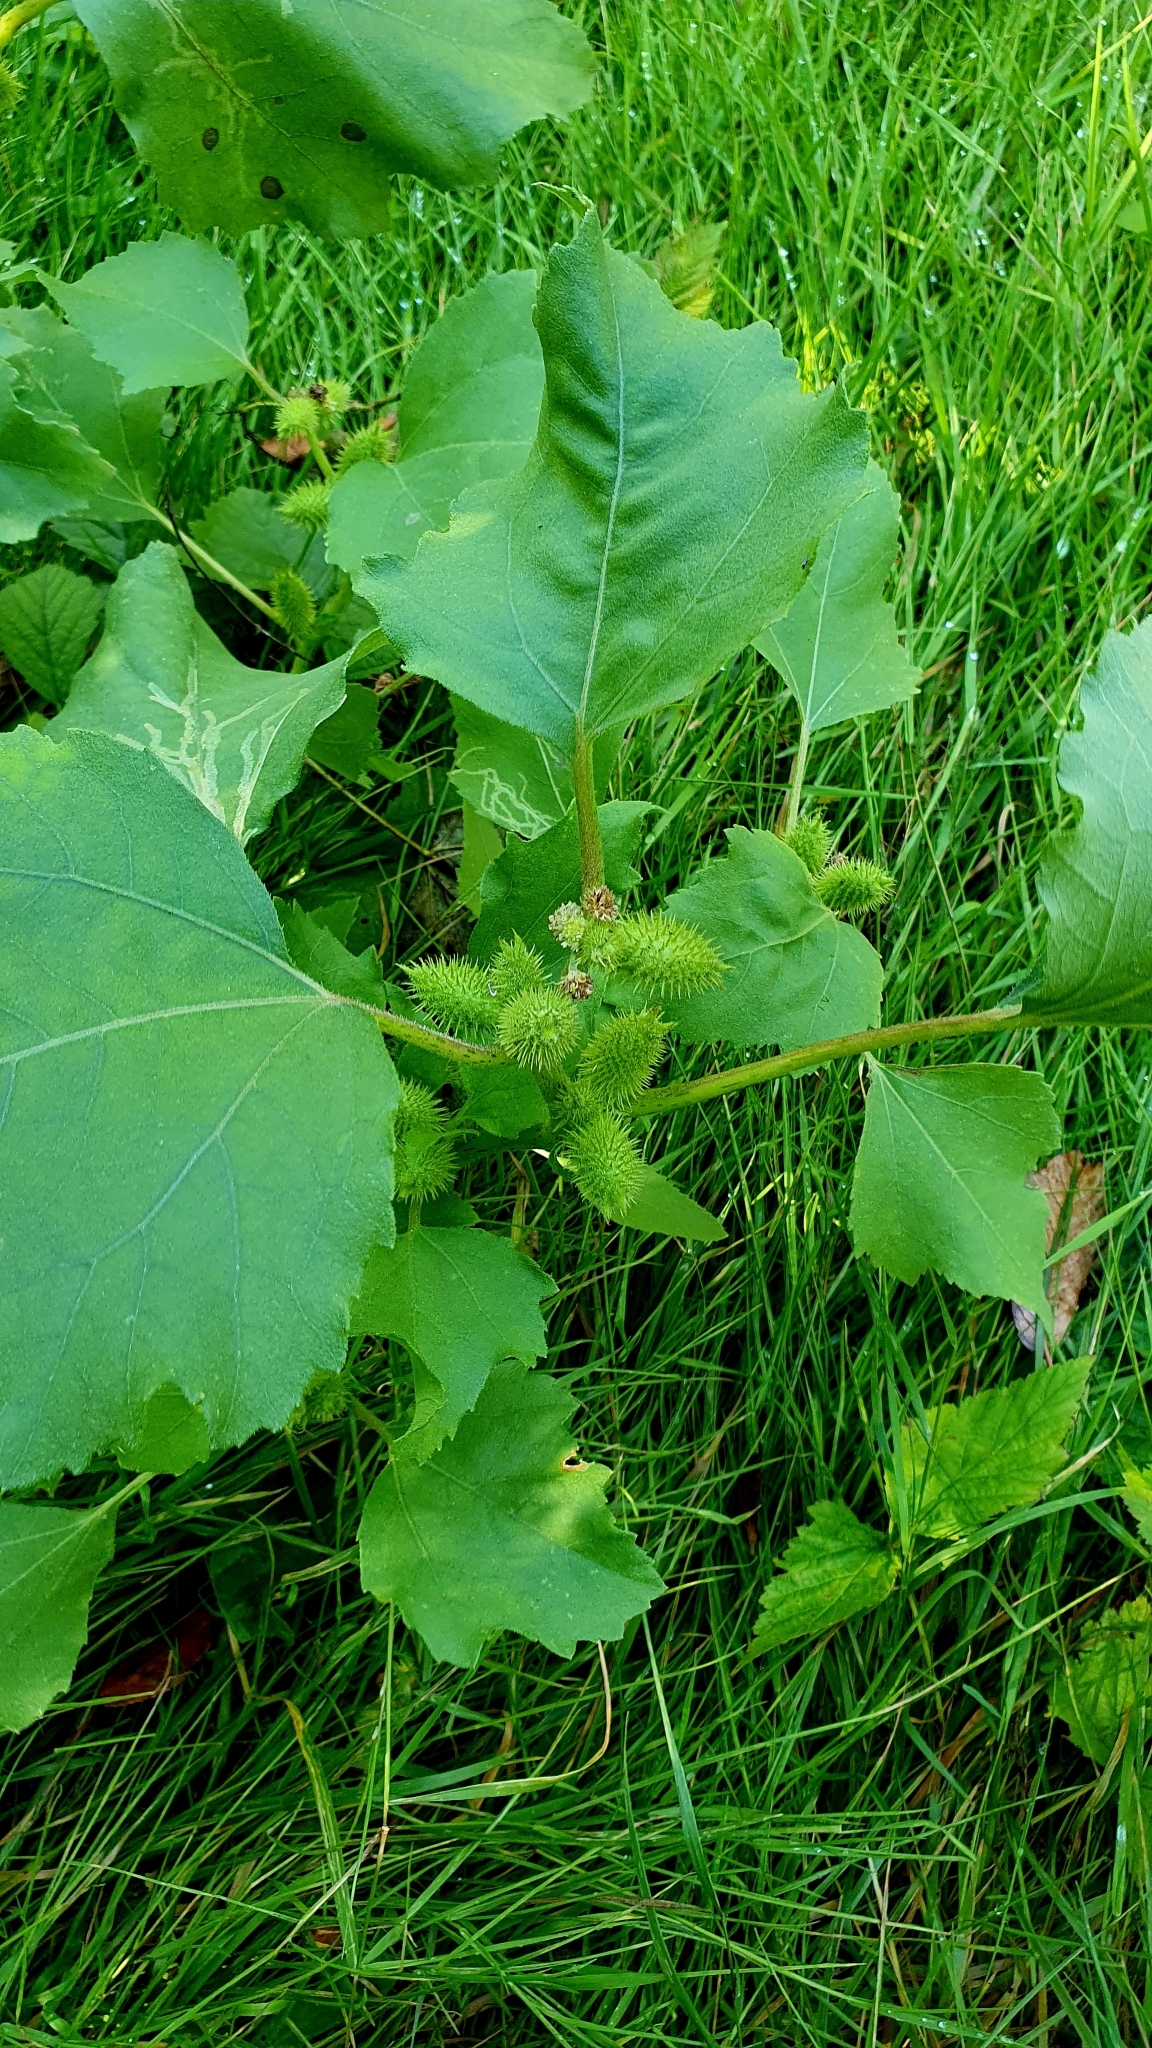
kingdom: Plantae
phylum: Tracheophyta
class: Magnoliopsida
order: Asterales
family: Asteraceae
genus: Xanthium
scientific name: Xanthium orientale
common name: Californian burr
